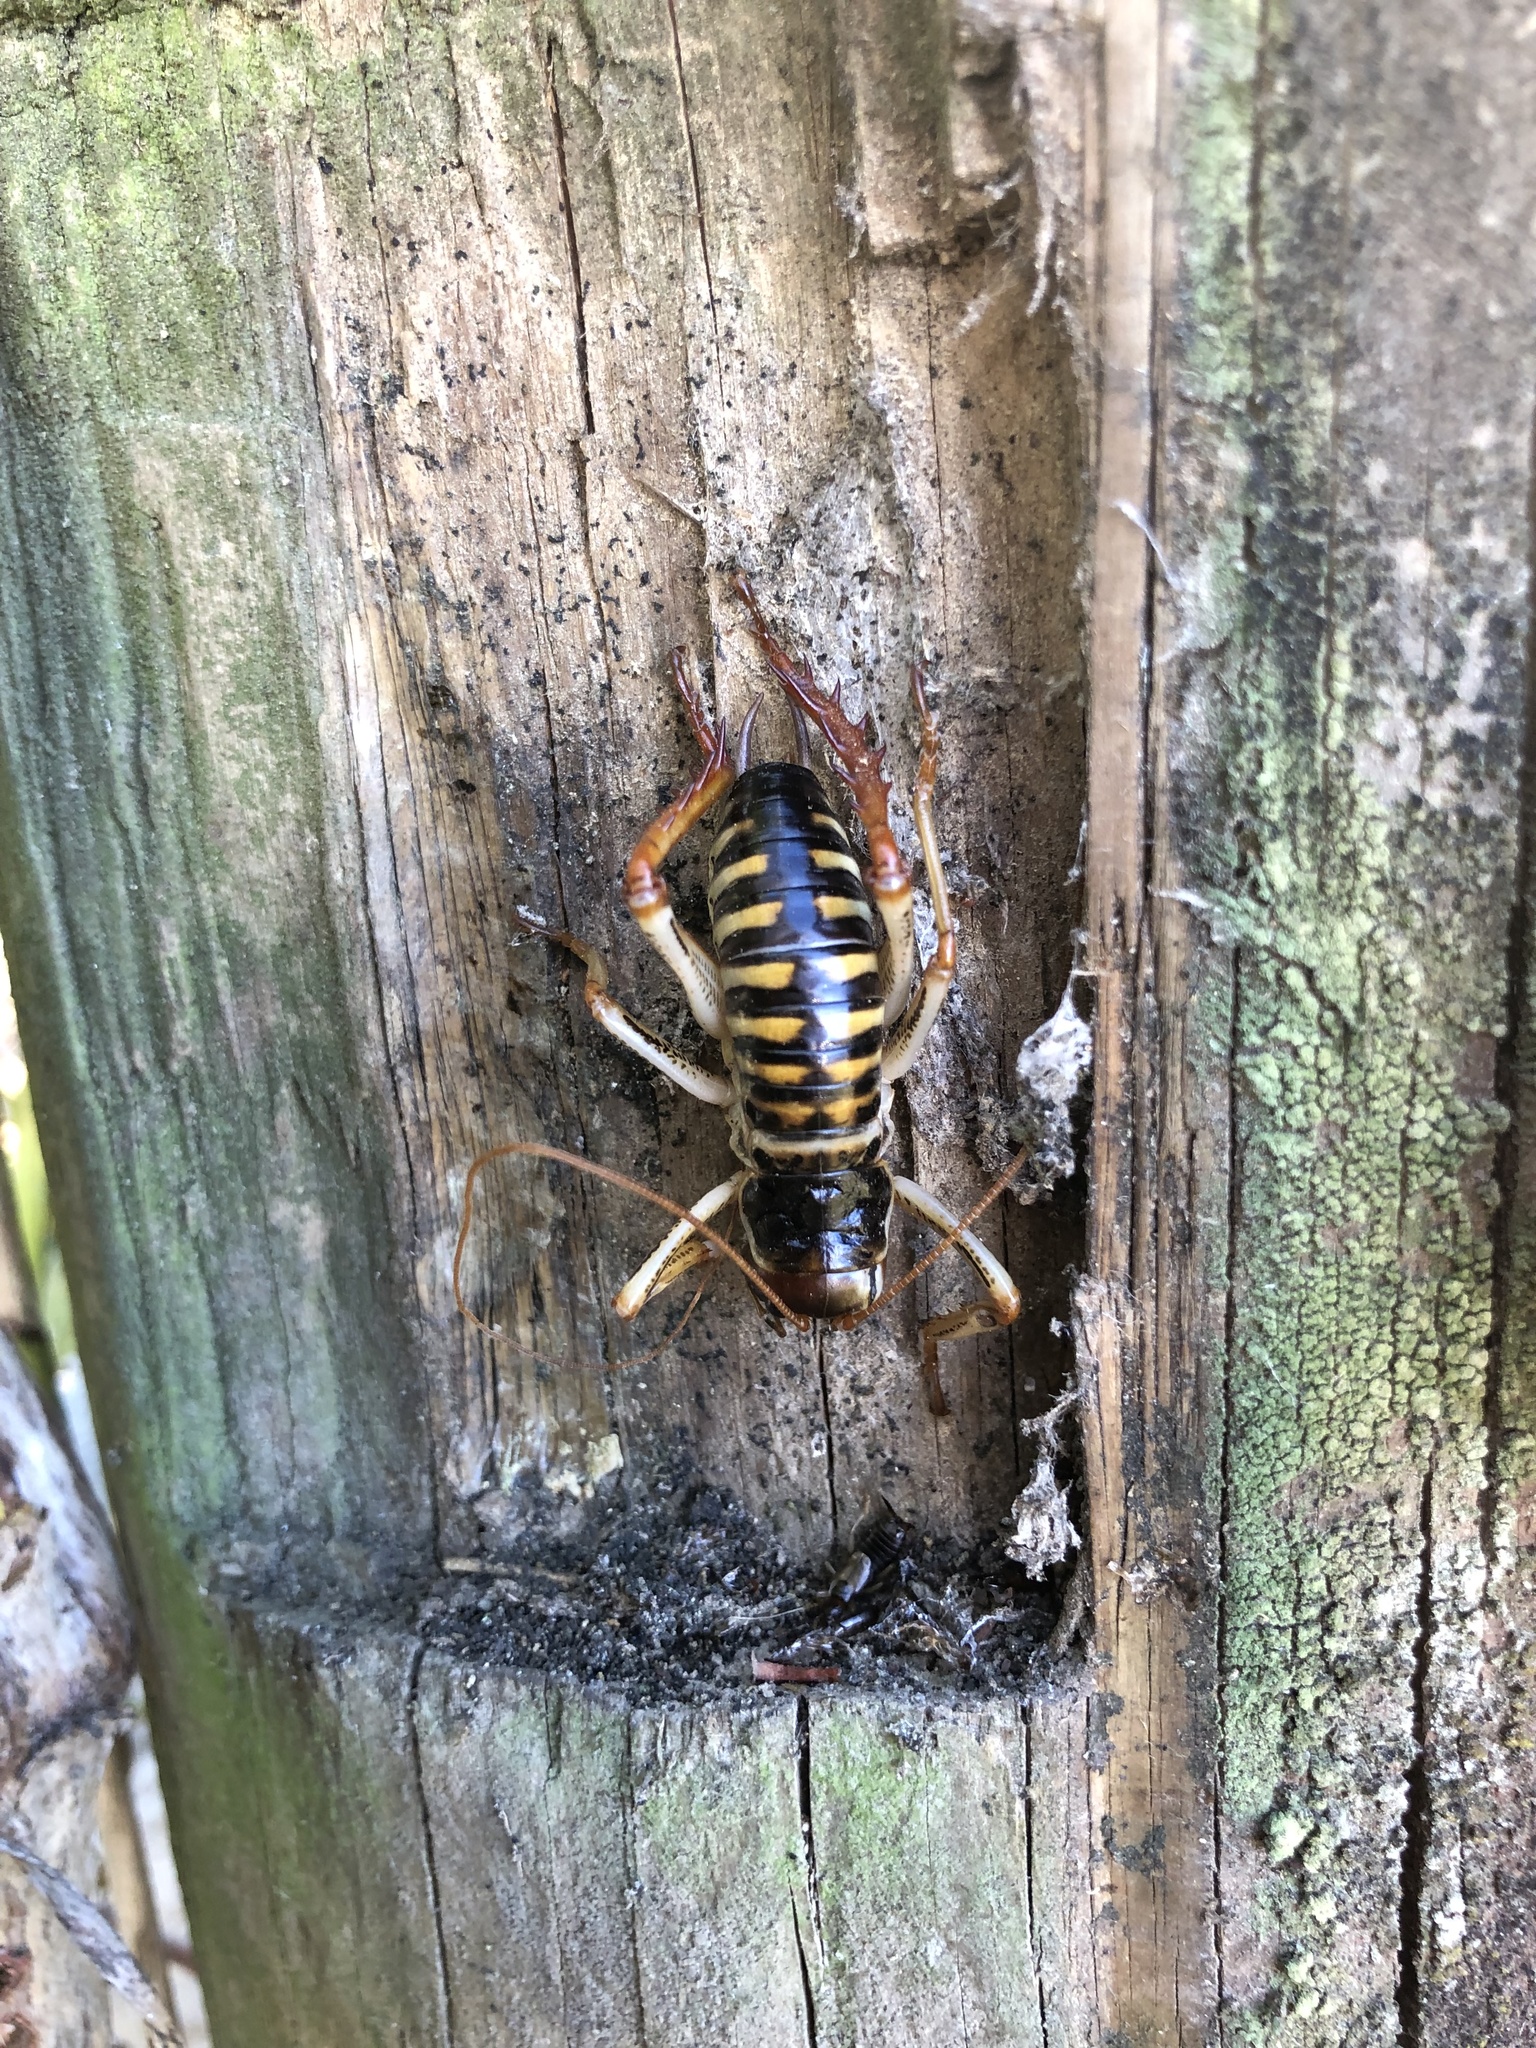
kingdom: Animalia
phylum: Arthropoda
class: Insecta
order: Orthoptera
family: Anostostomatidae
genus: Hemideina
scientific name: Hemideina crassidens
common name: Wellington tree weta
